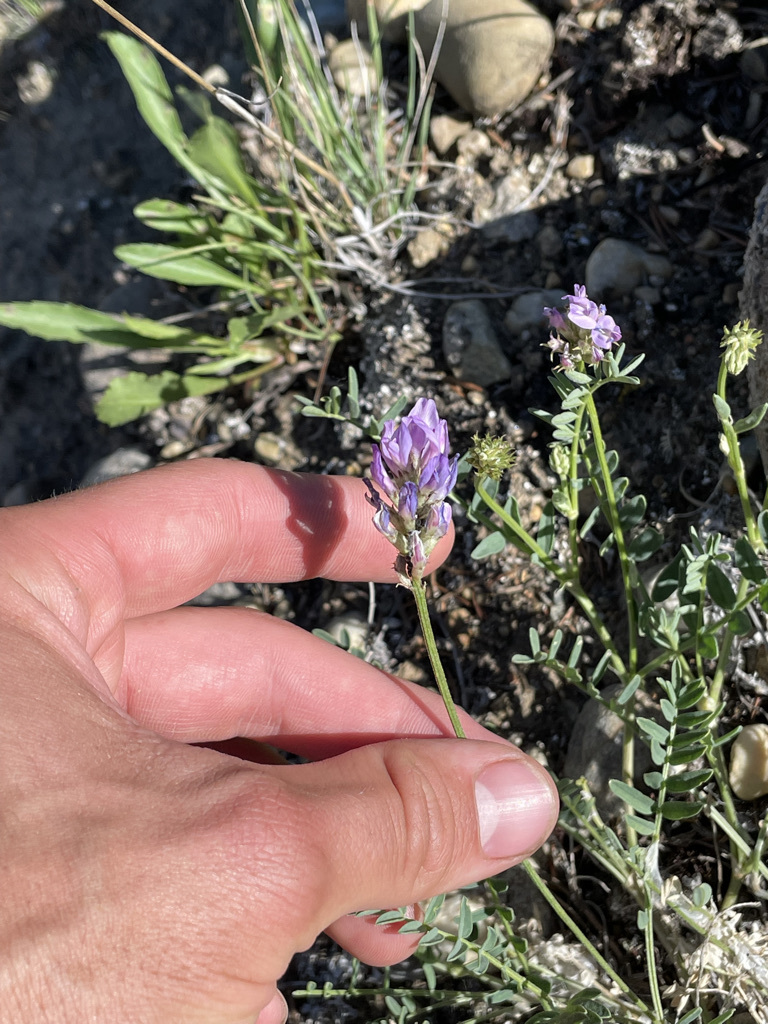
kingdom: Plantae
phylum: Tracheophyta
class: Magnoliopsida
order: Fabales
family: Fabaceae
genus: Astragalus
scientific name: Astragalus laxmannii
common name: Laxmann's milk-vetch
